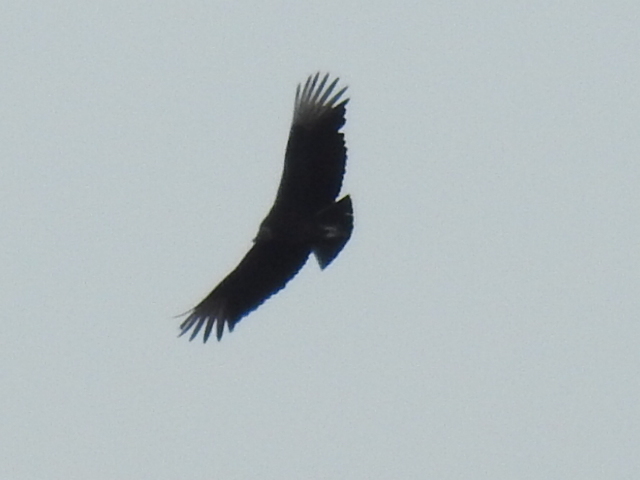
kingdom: Animalia
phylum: Chordata
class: Aves
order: Accipitriformes
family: Cathartidae
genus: Coragyps
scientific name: Coragyps atratus
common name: Black vulture
